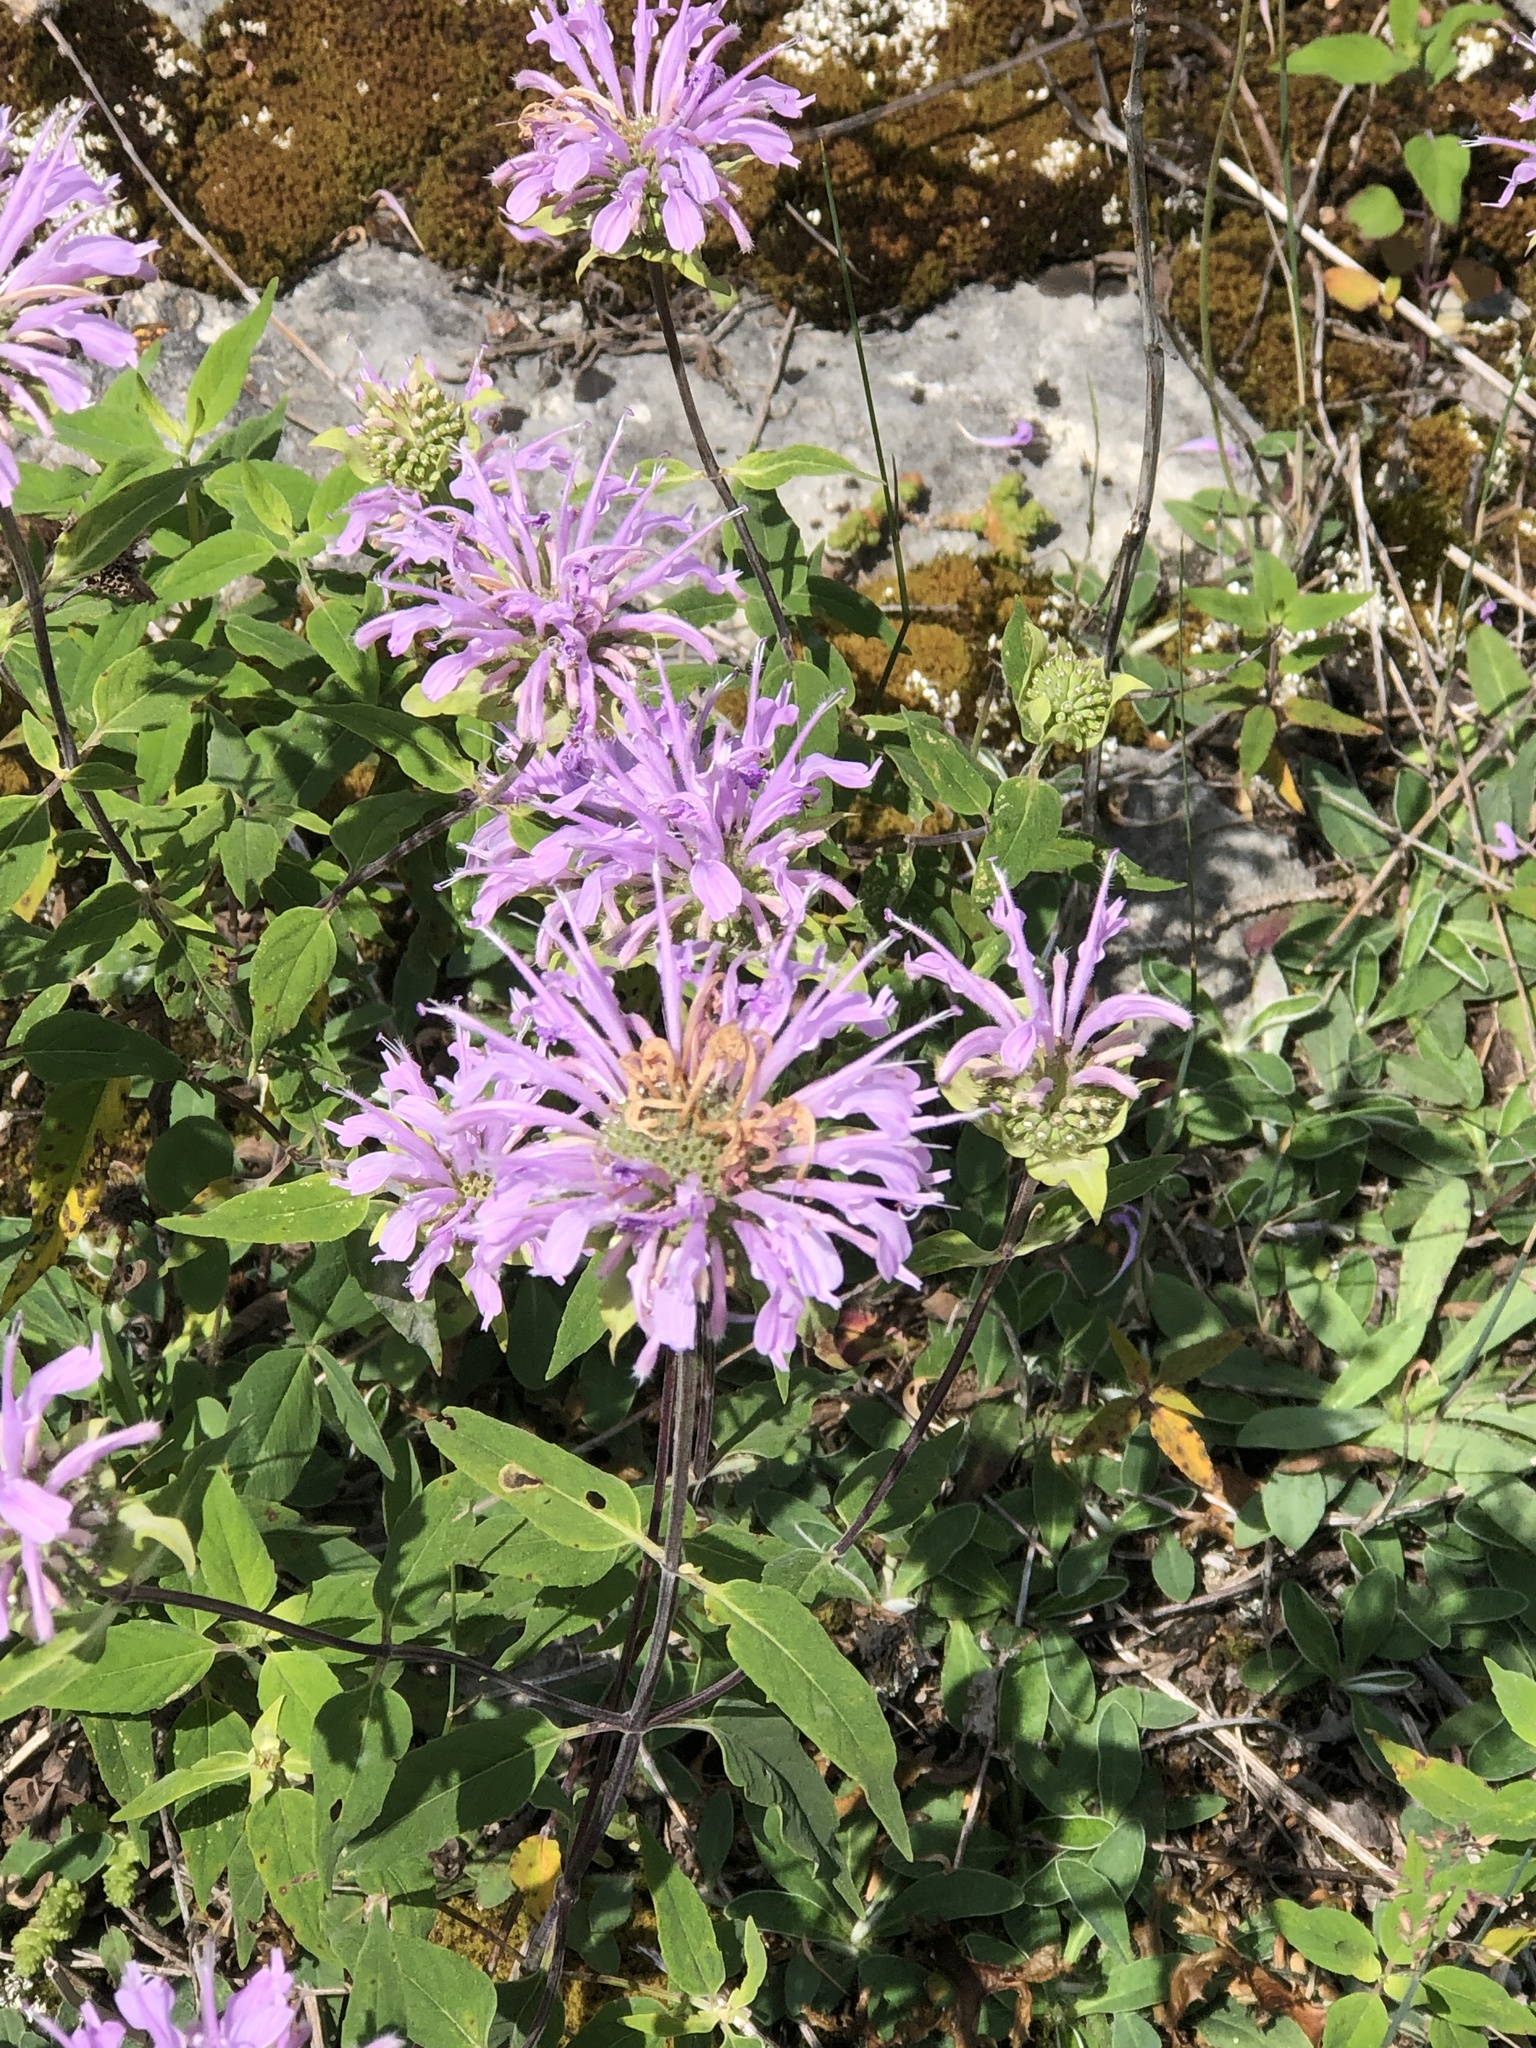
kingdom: Plantae
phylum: Tracheophyta
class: Magnoliopsida
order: Lamiales
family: Lamiaceae
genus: Monarda
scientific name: Monarda fistulosa
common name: Purple beebalm
